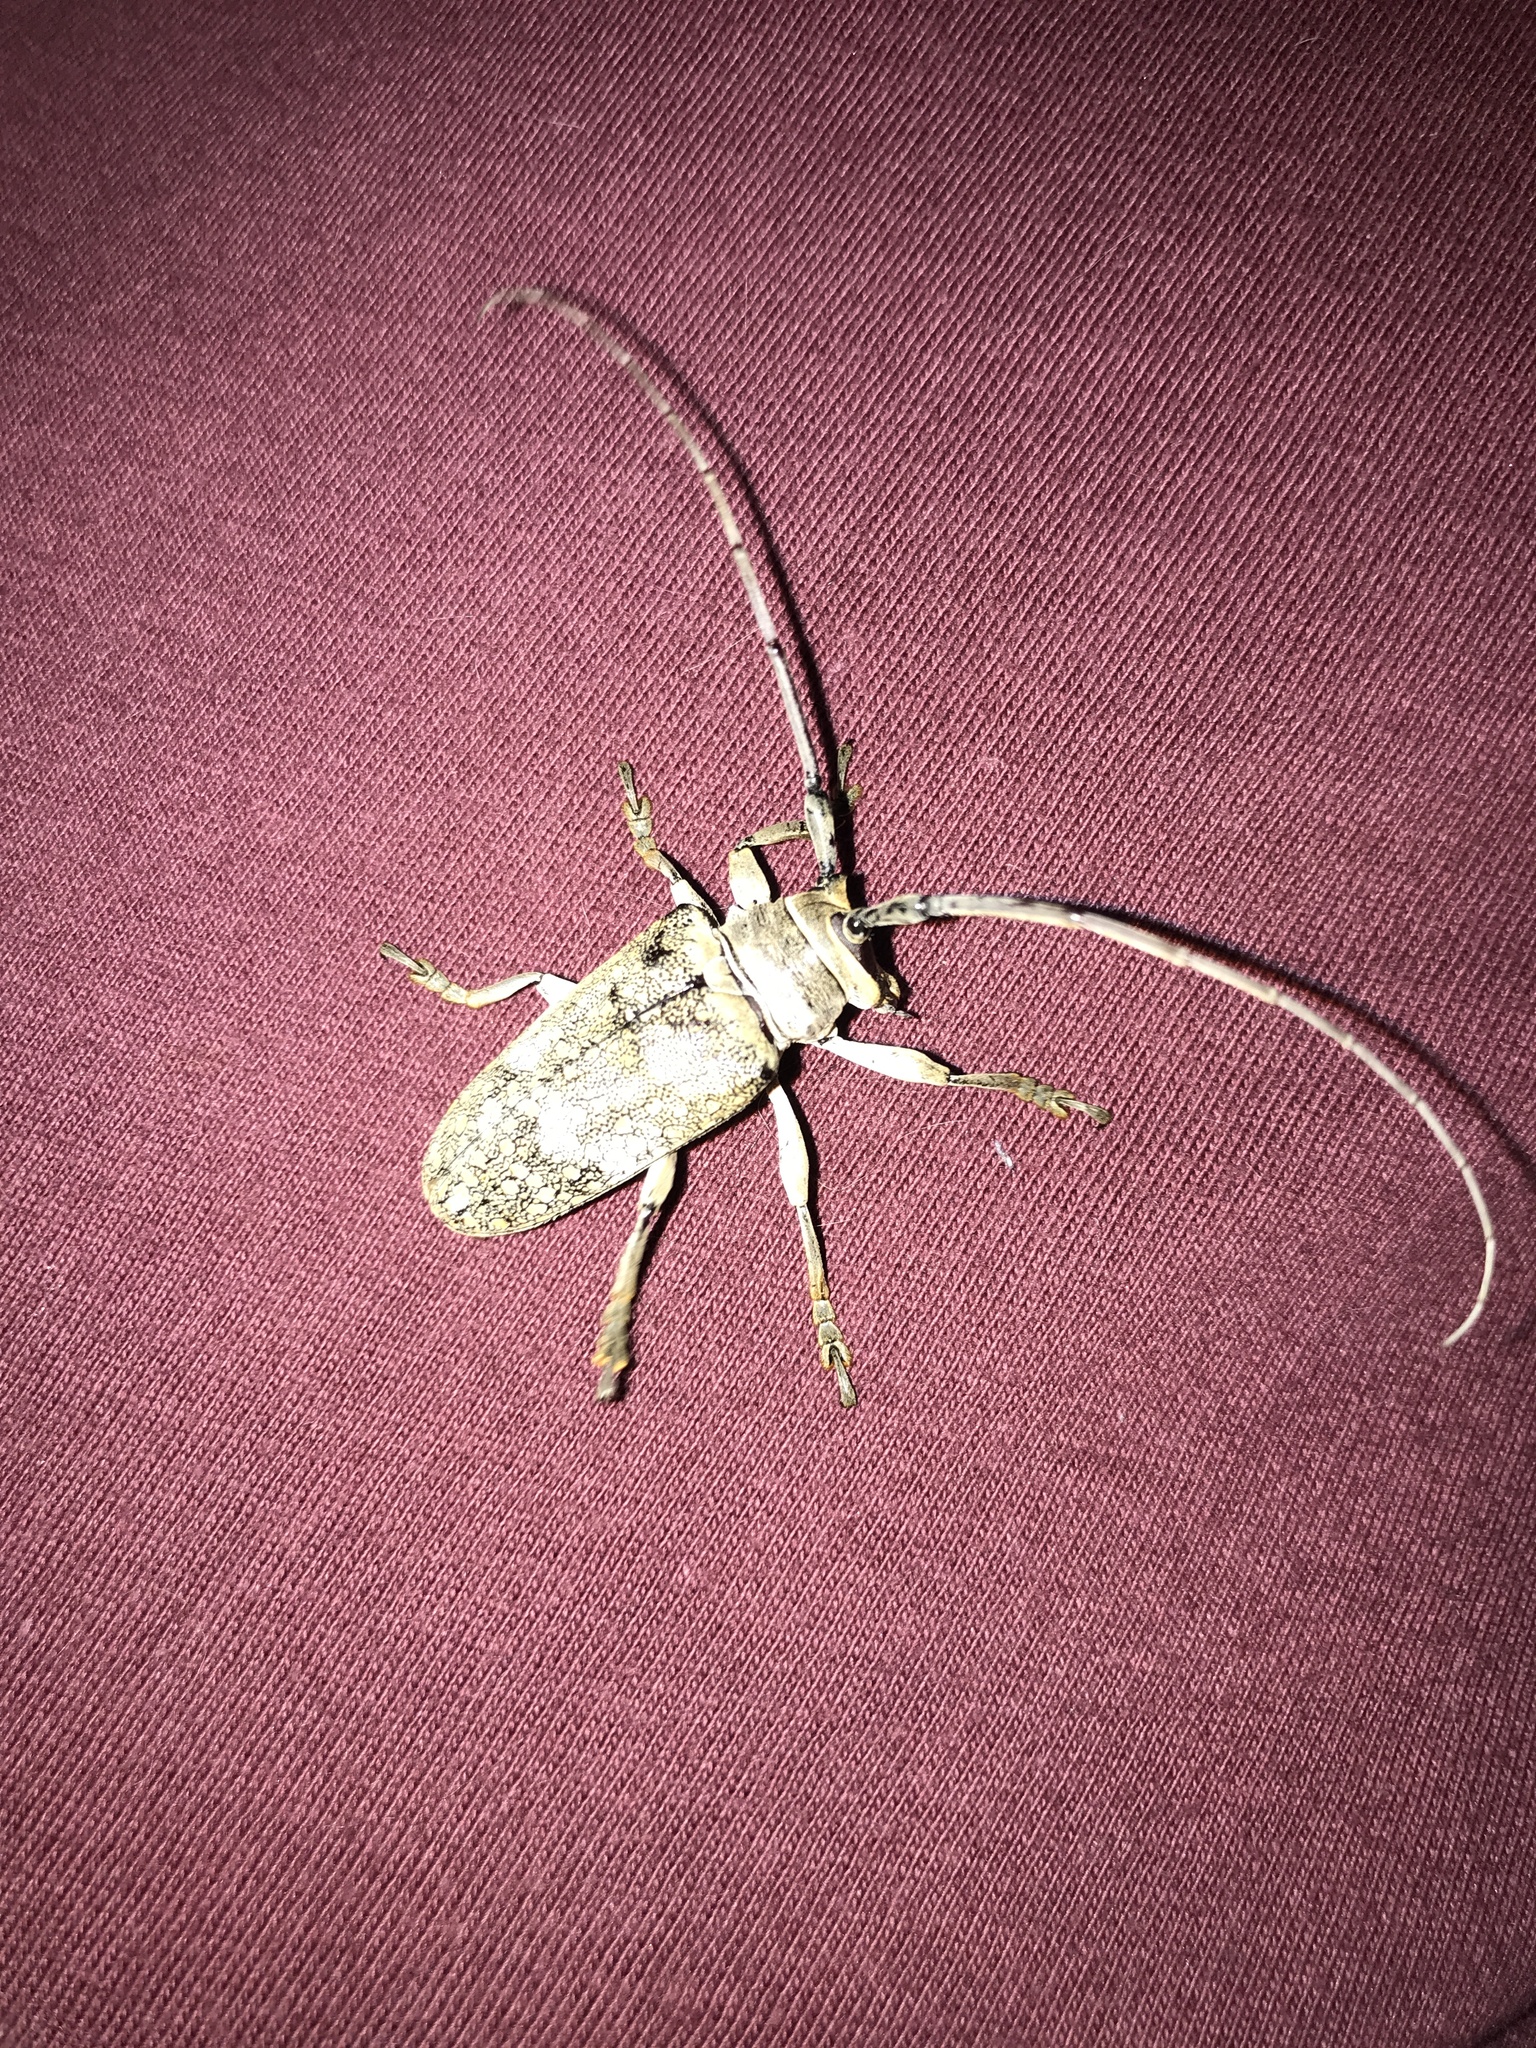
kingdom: Animalia
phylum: Arthropoda
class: Insecta
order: Coleoptera
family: Cerambycidae
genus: Lochmaeocles
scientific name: Lochmaeocles sladeni
